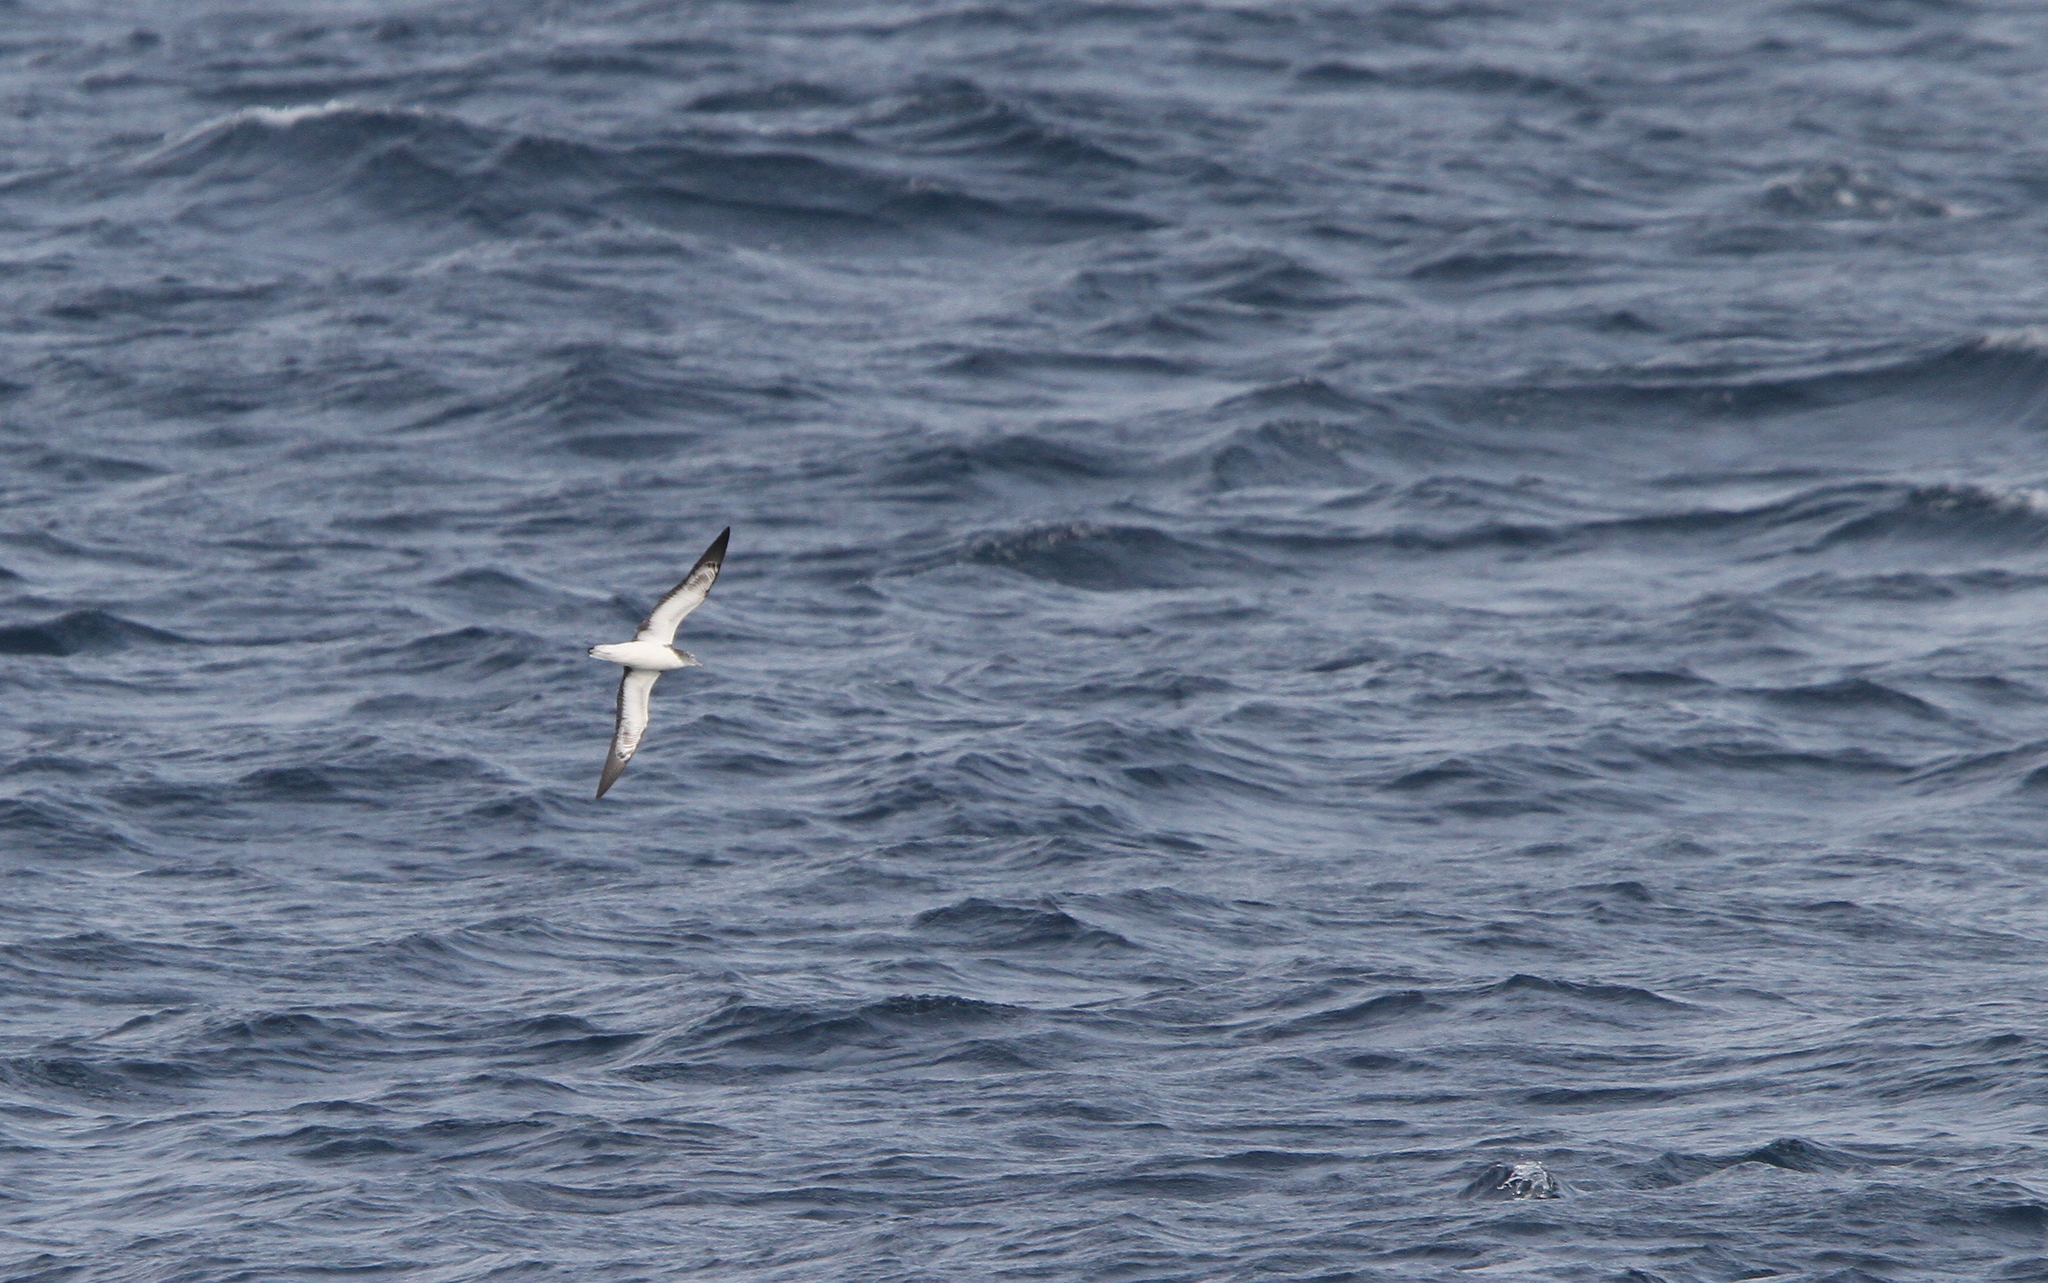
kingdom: Animalia
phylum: Chordata
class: Aves
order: Procellariiformes
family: Procellariidae
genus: Calonectris
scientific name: Calonectris leucomelas
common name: Streaked shearwater
